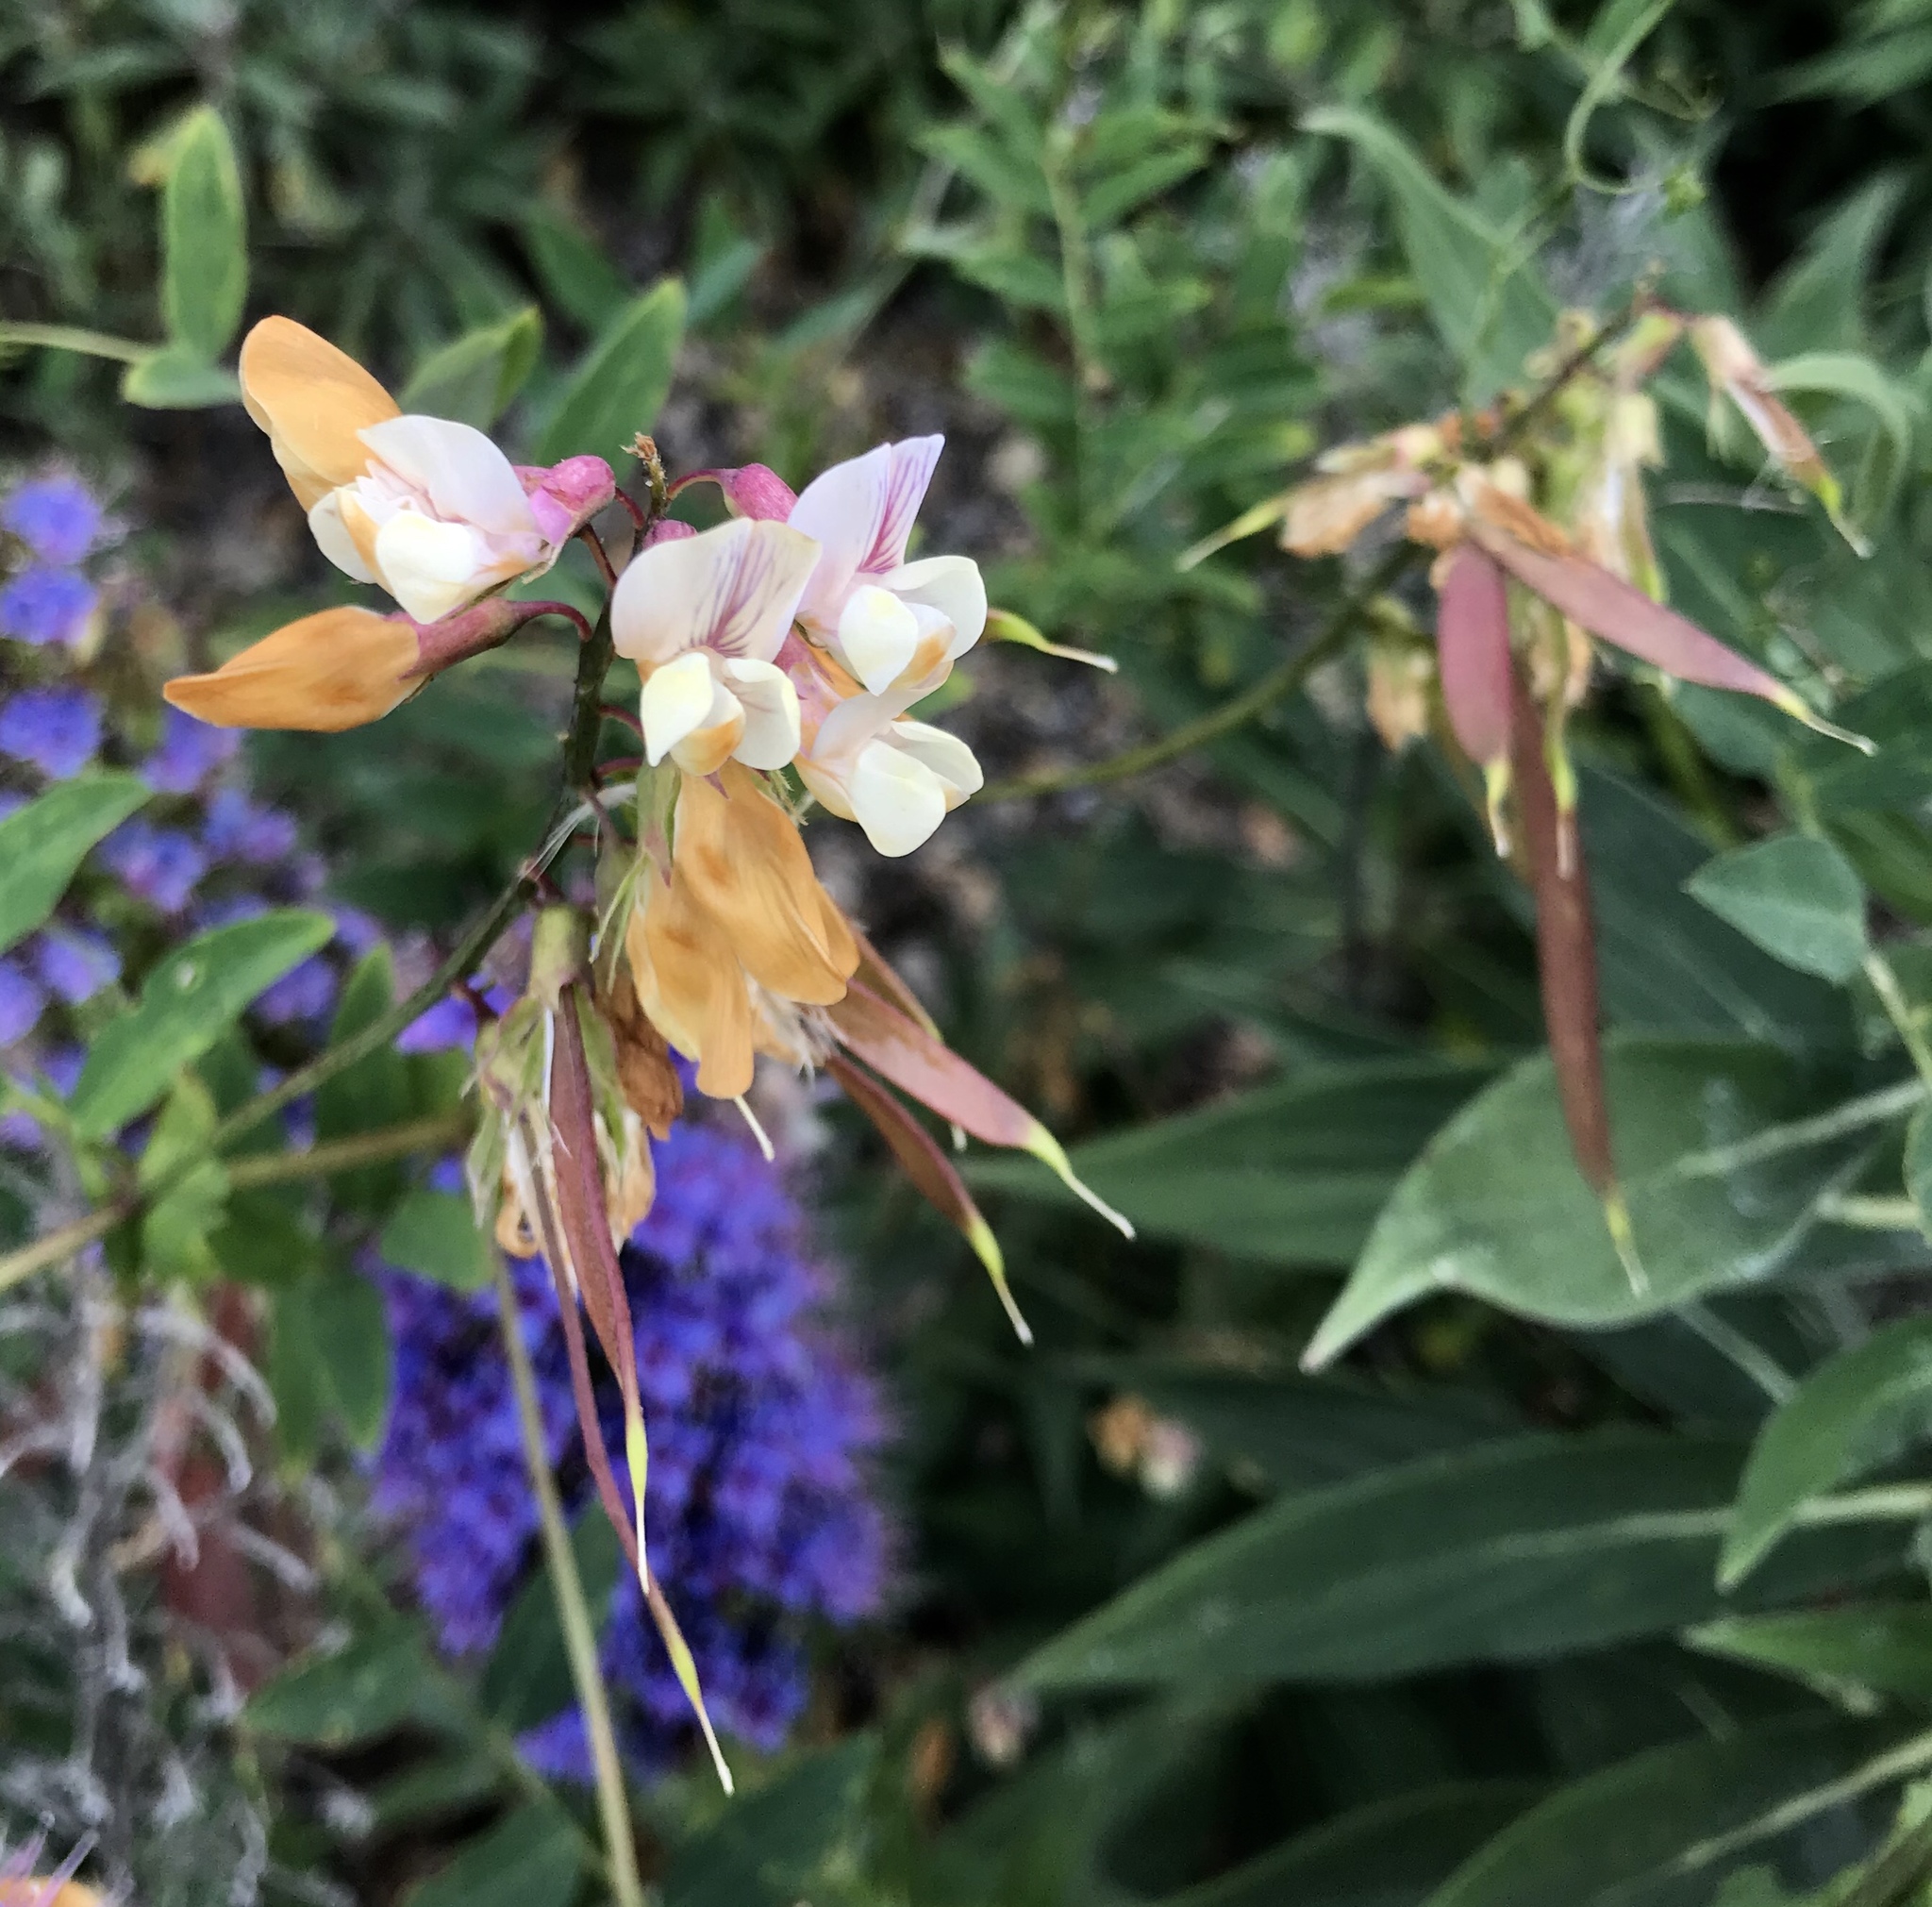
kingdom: Plantae
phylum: Tracheophyta
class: Magnoliopsida
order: Fabales
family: Fabaceae
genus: Lathyrus
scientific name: Lathyrus vestitus
